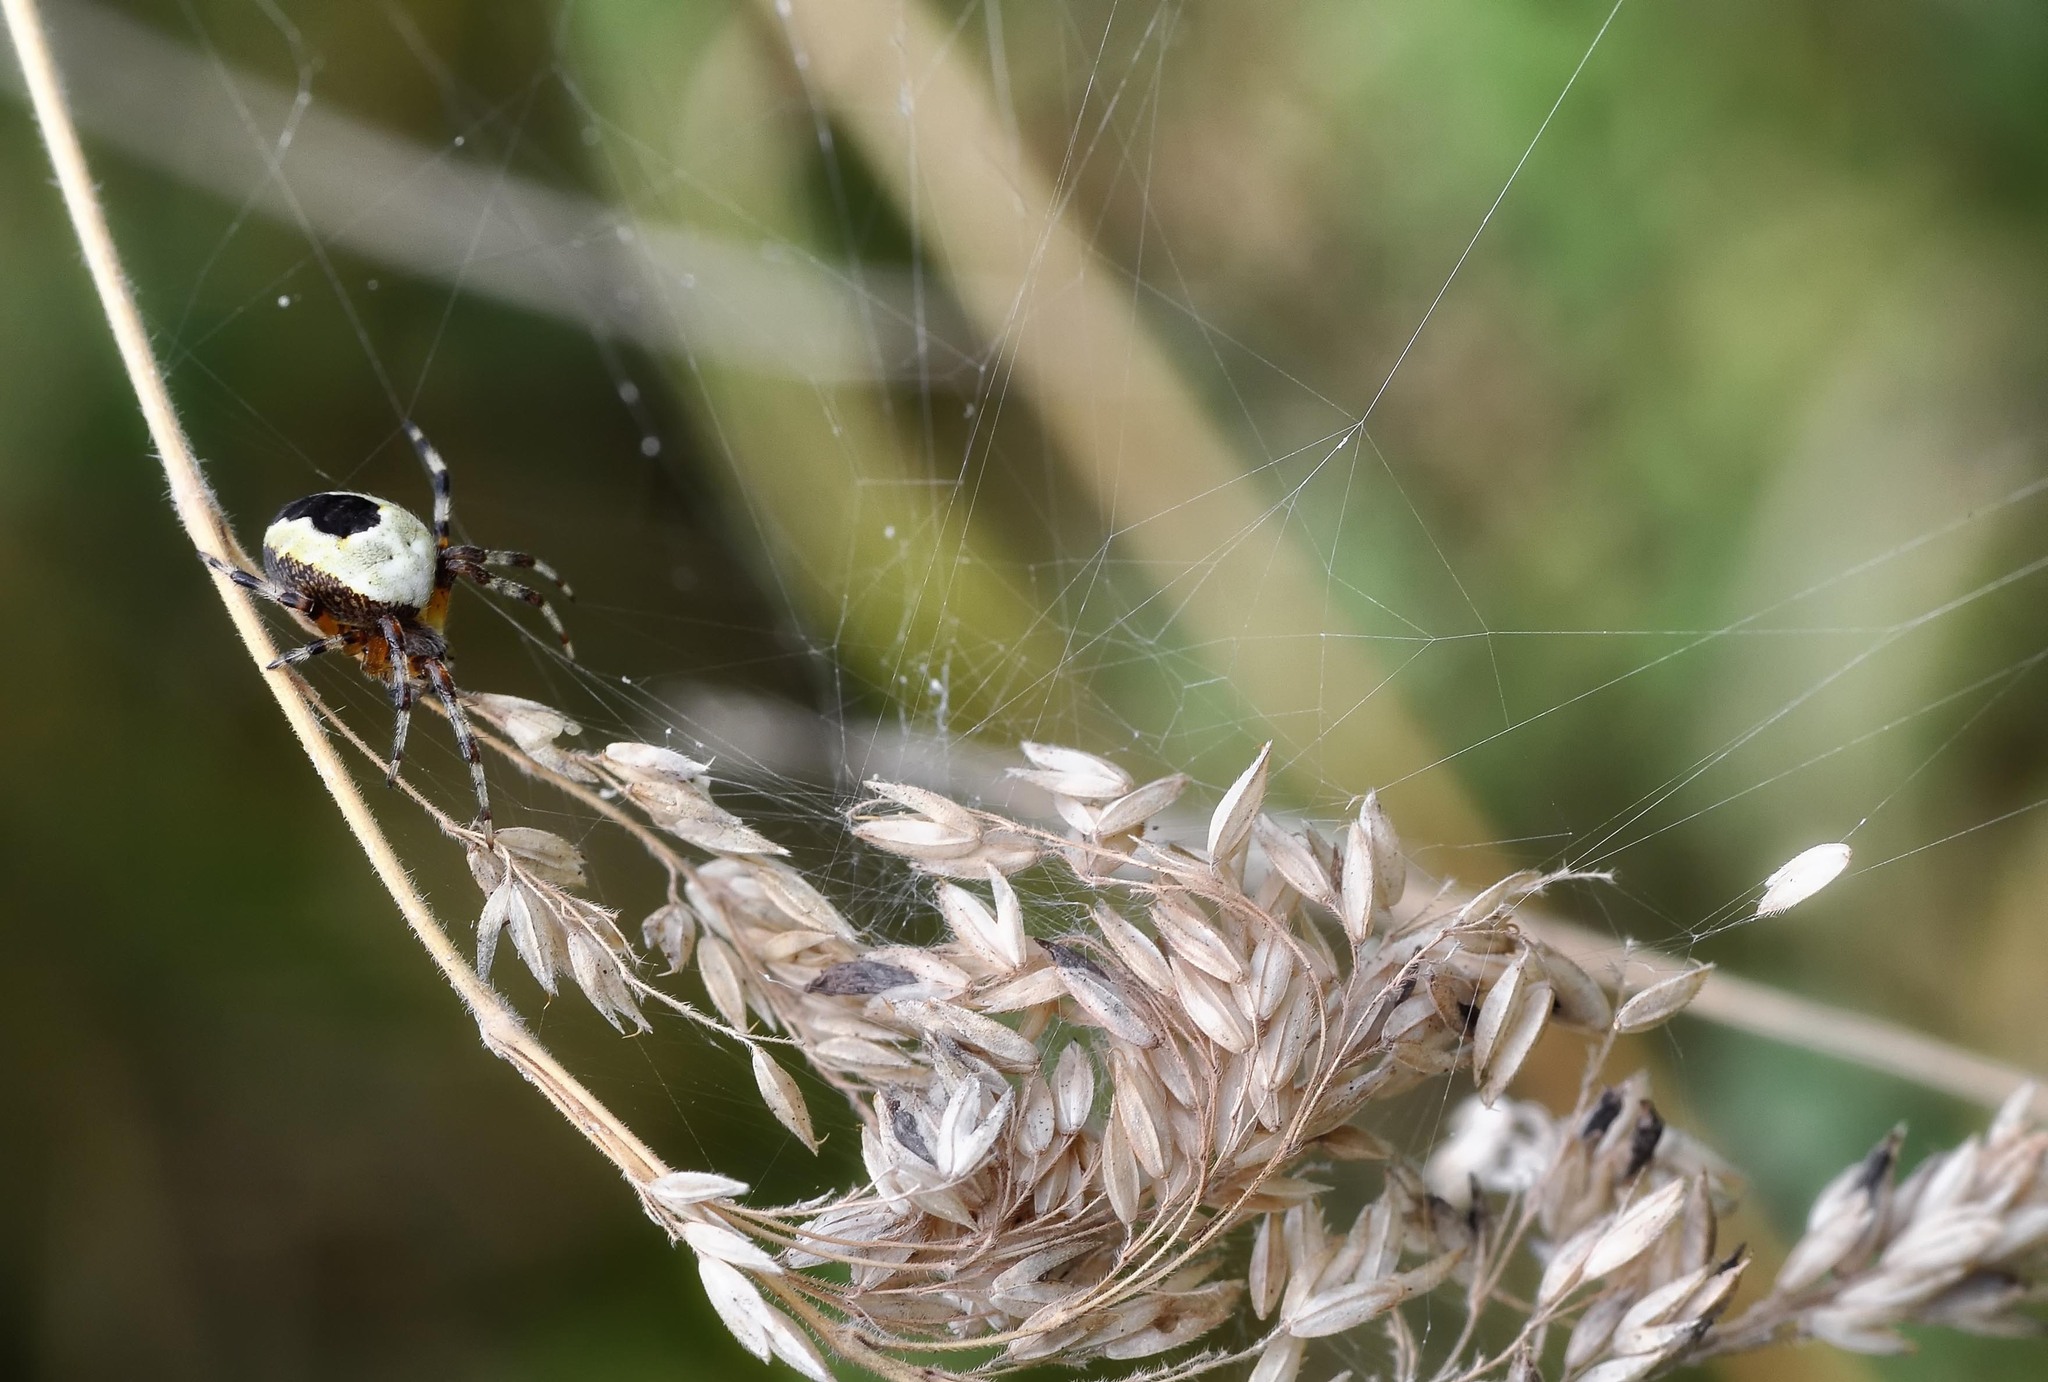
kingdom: Animalia
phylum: Arthropoda
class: Arachnida
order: Araneae
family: Araneidae
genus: Araneus
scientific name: Araneus marmoreus
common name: Marbled orbweaver
